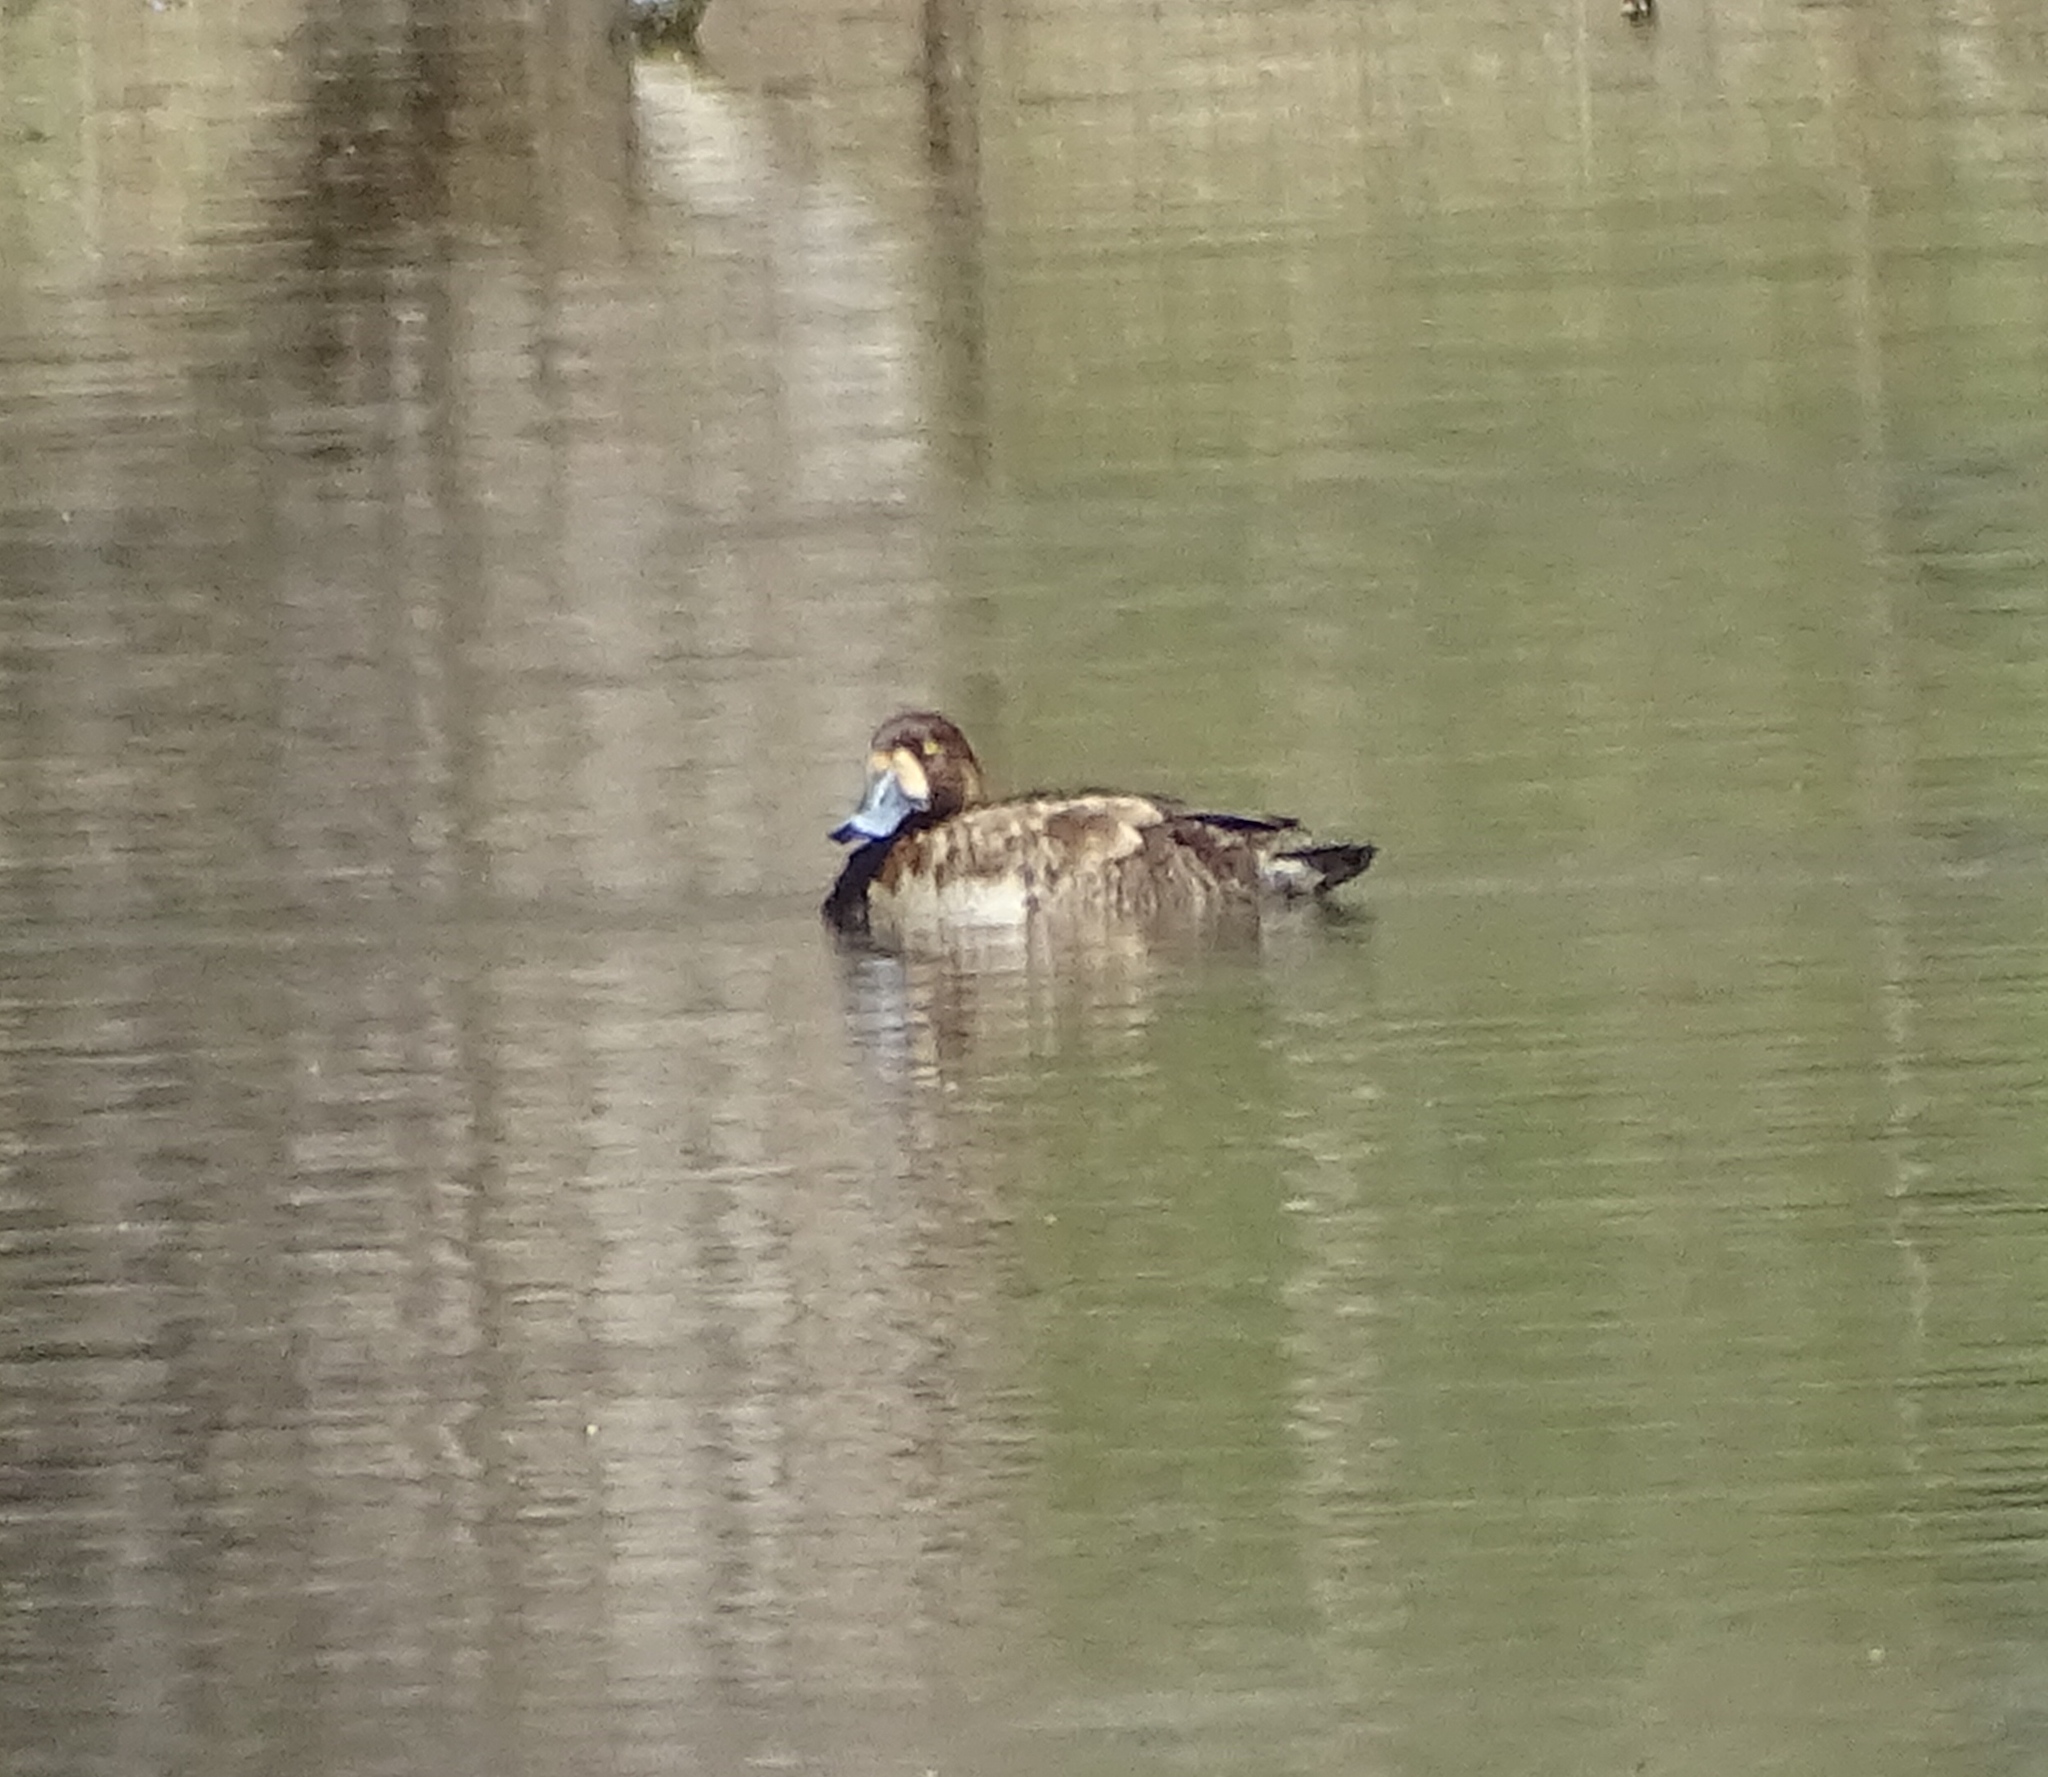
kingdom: Animalia
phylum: Chordata
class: Aves
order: Anseriformes
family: Anatidae
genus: Aythya
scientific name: Aythya marila
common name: Greater scaup
